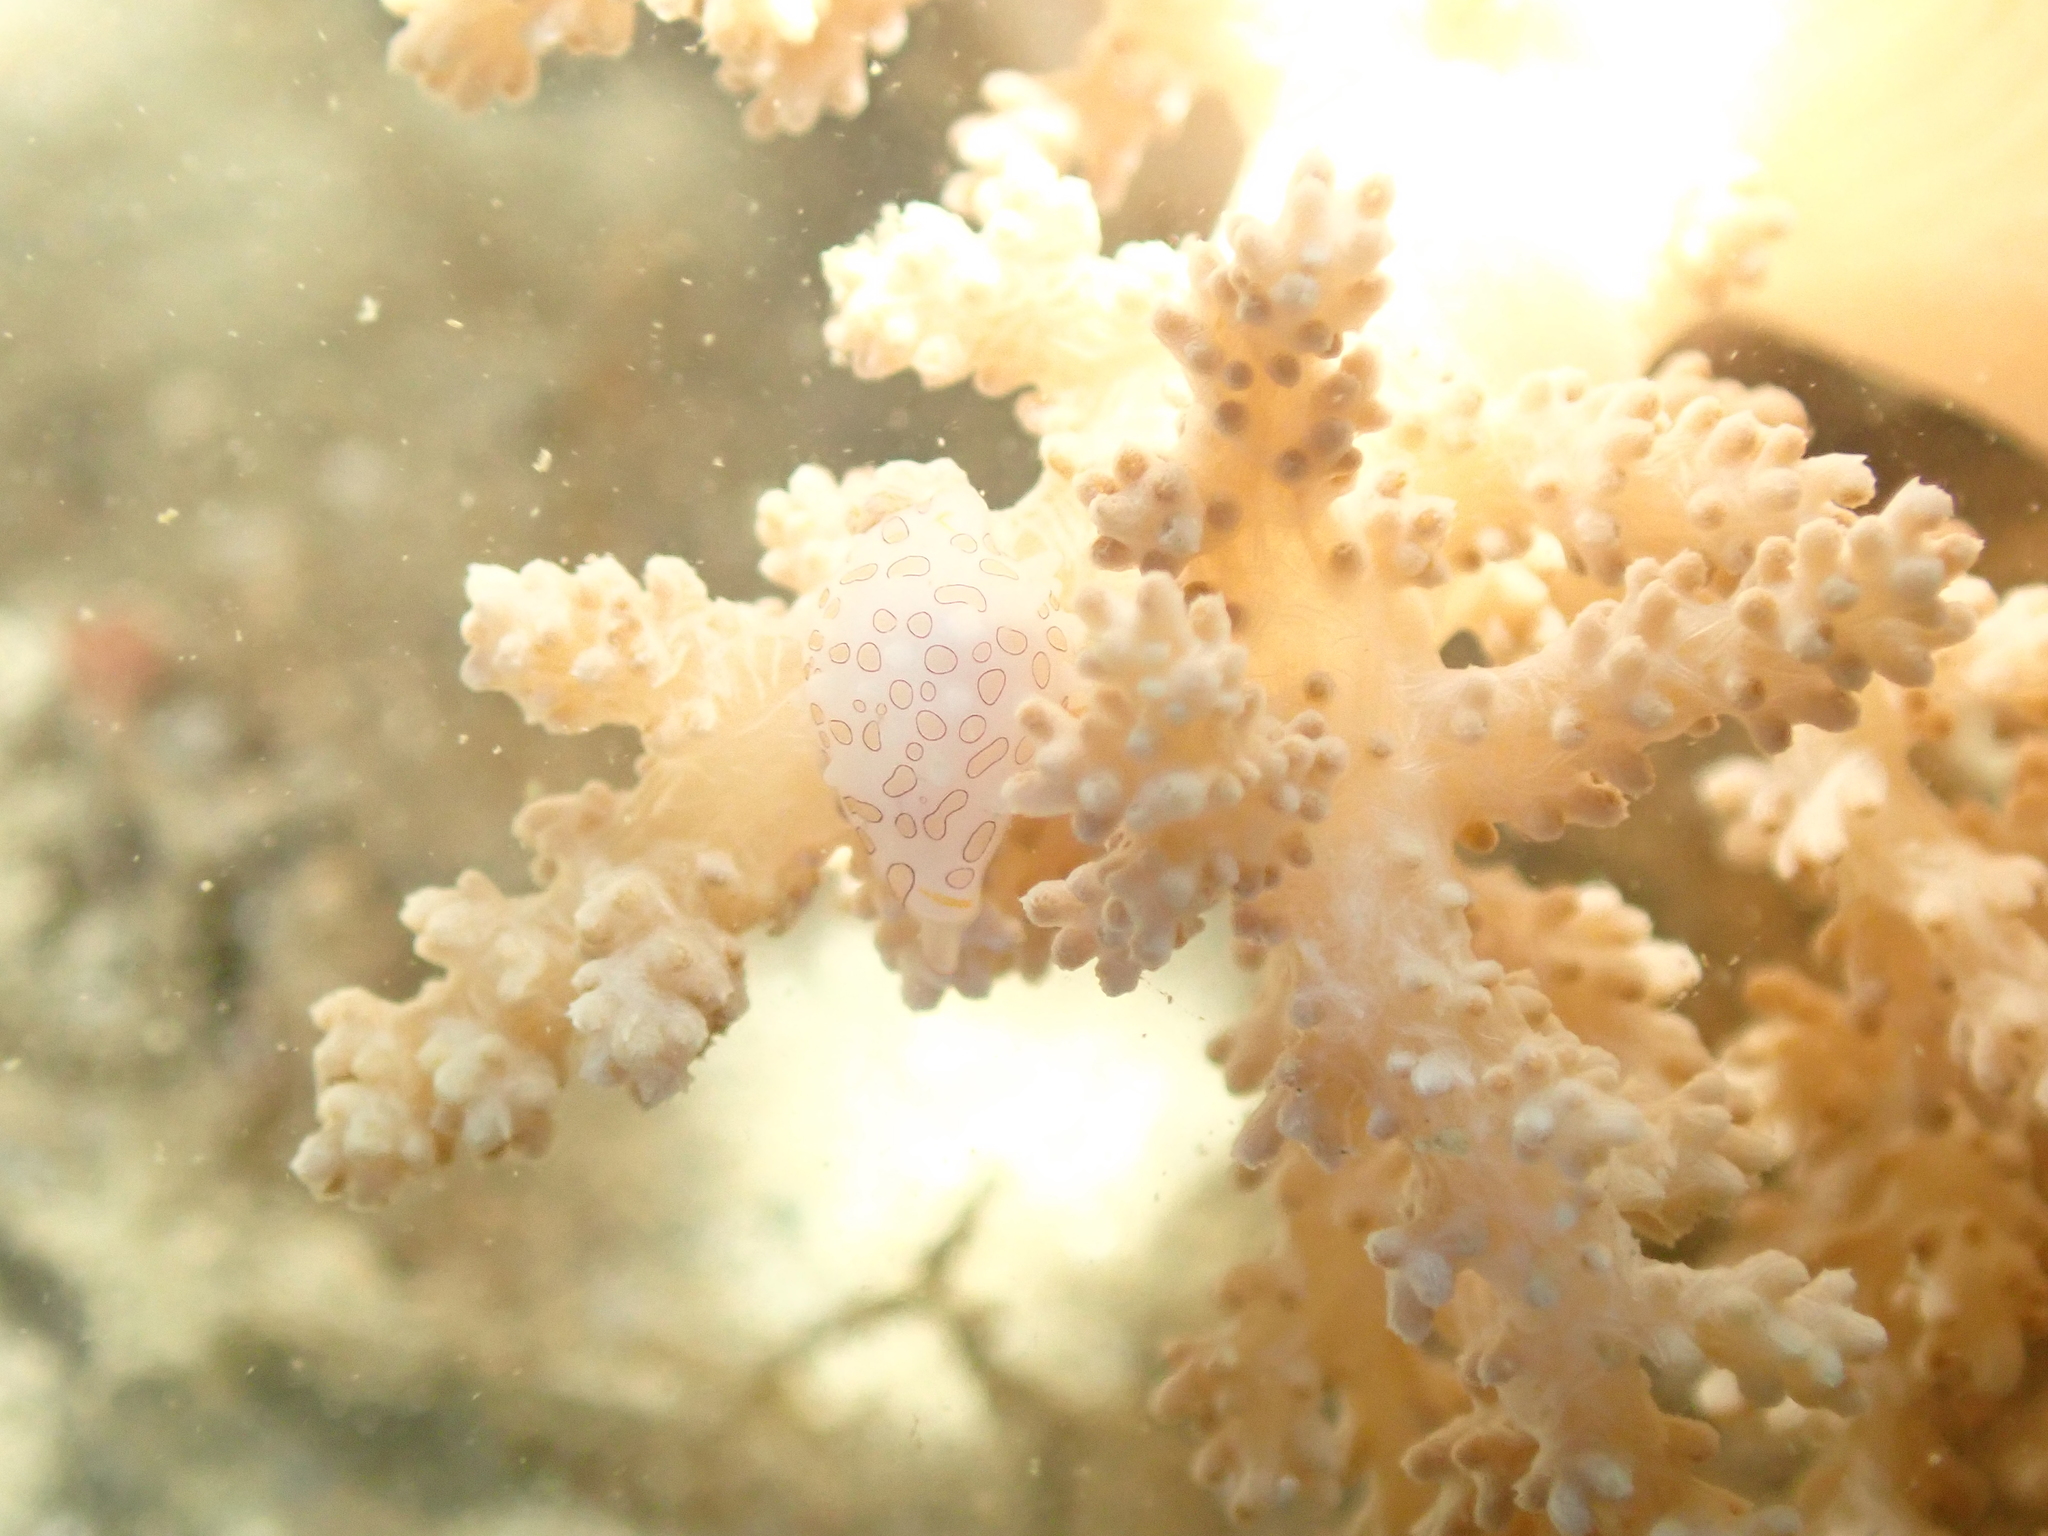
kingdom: Animalia
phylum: Mollusca
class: Gastropoda
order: Littorinimorpha
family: Ovulidae
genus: Diminovula
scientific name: Diminovula margarita
